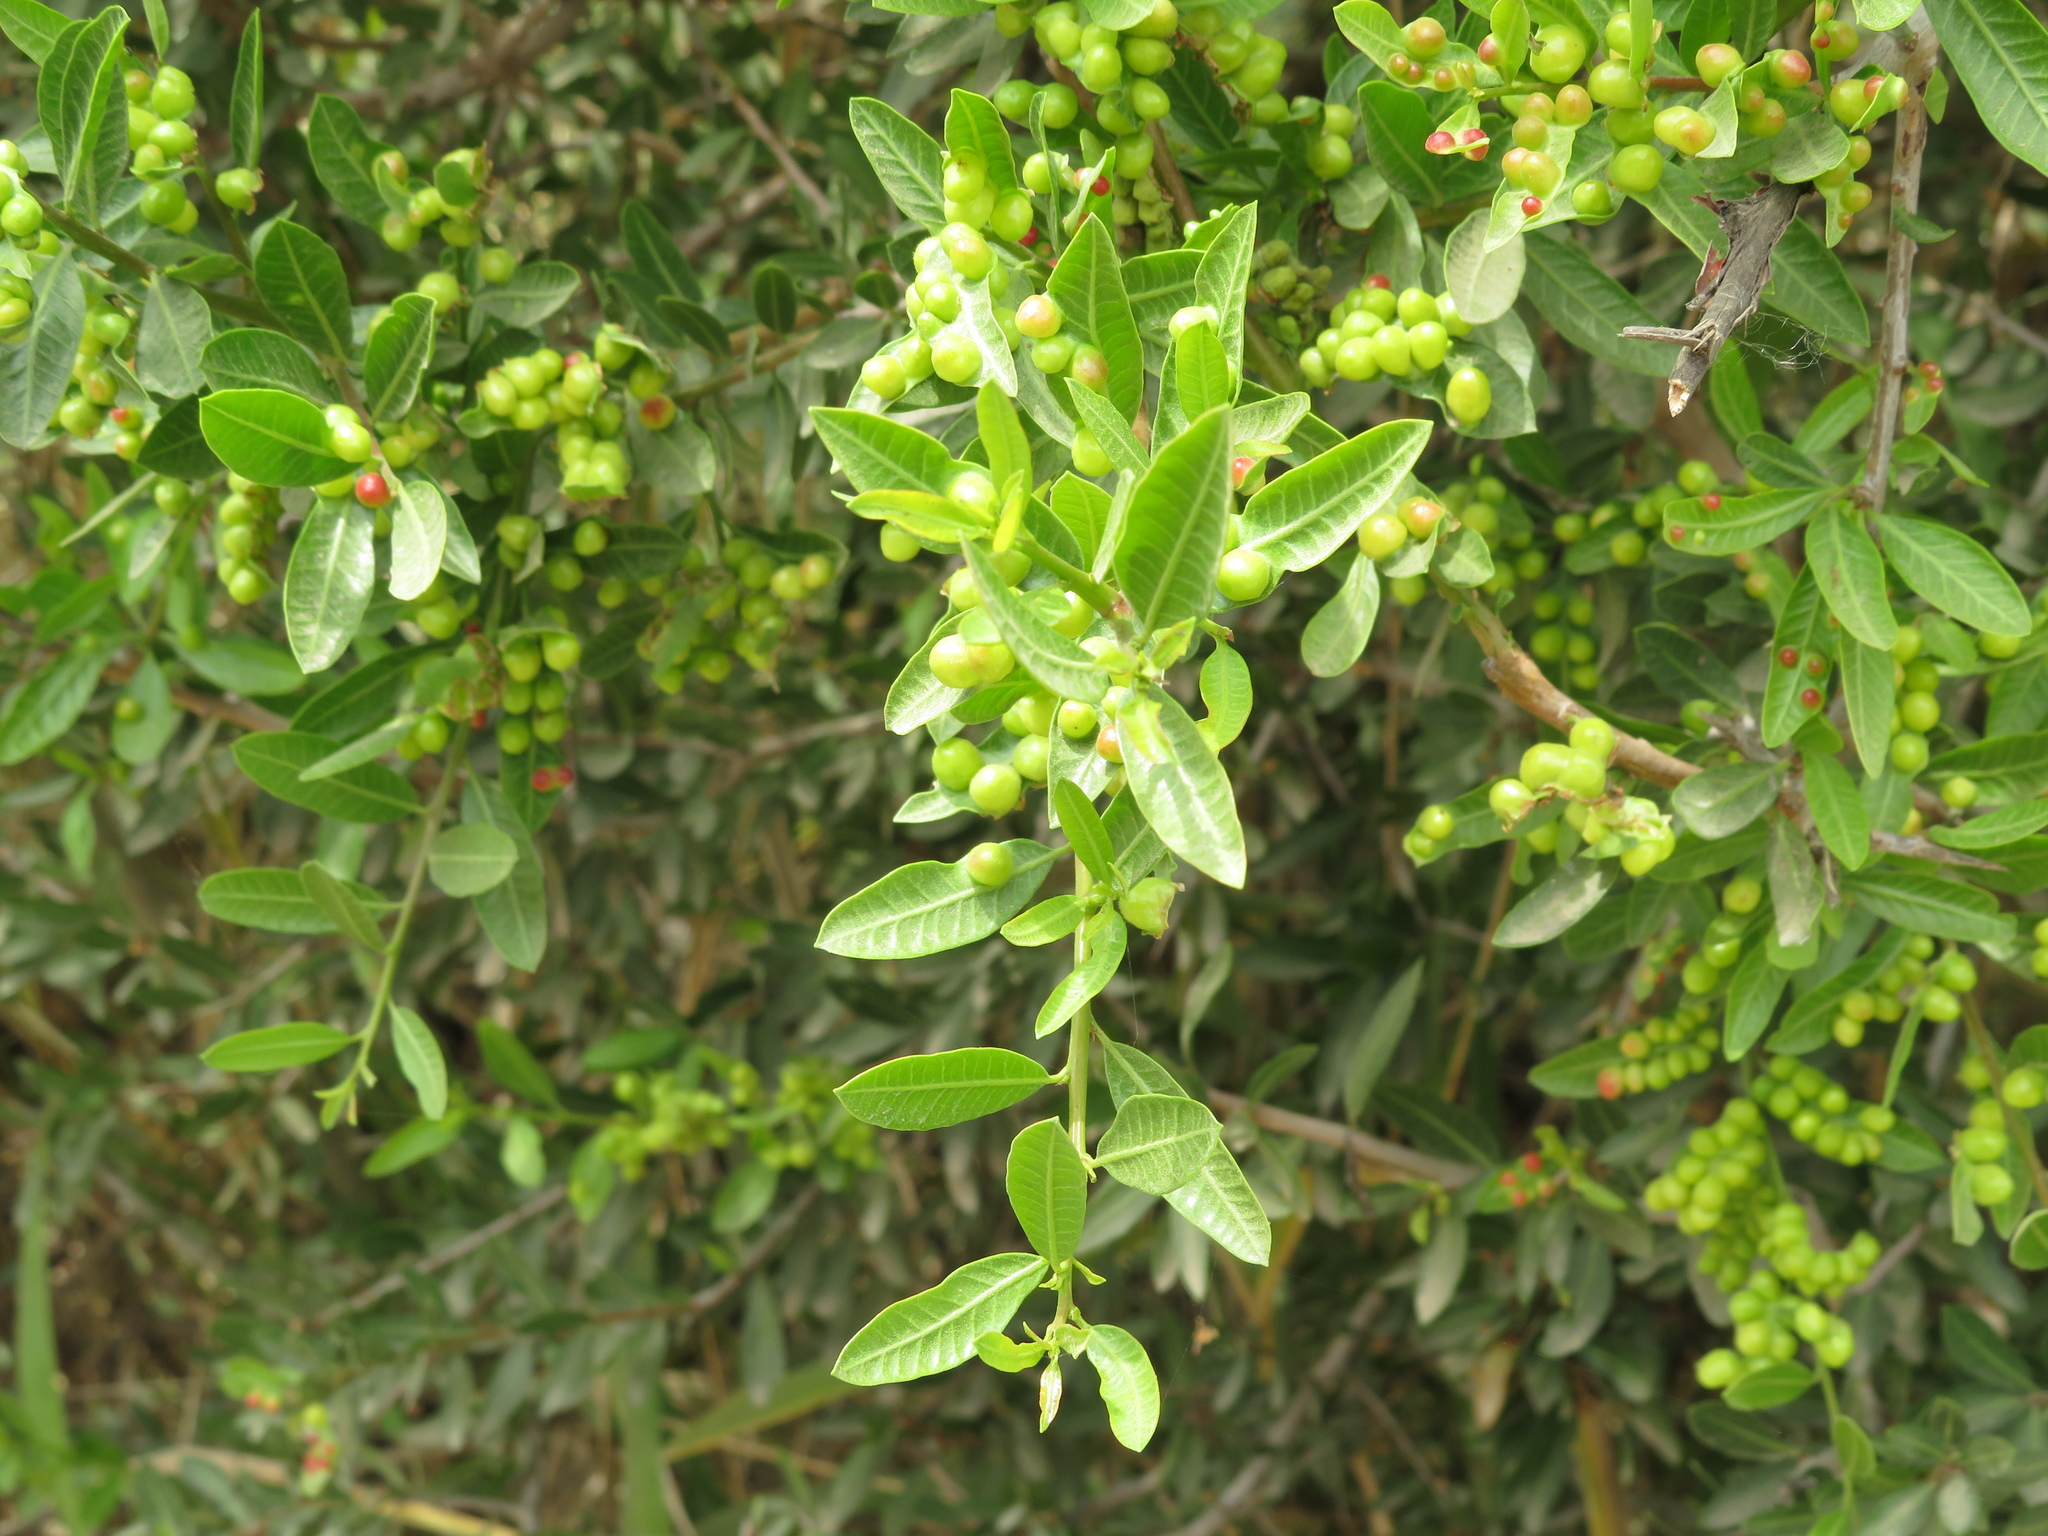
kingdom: Plantae
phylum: Tracheophyta
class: Magnoliopsida
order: Sapindales
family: Anacardiaceae
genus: Schinus
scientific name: Schinus longifolia
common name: Longleaf peppertree
